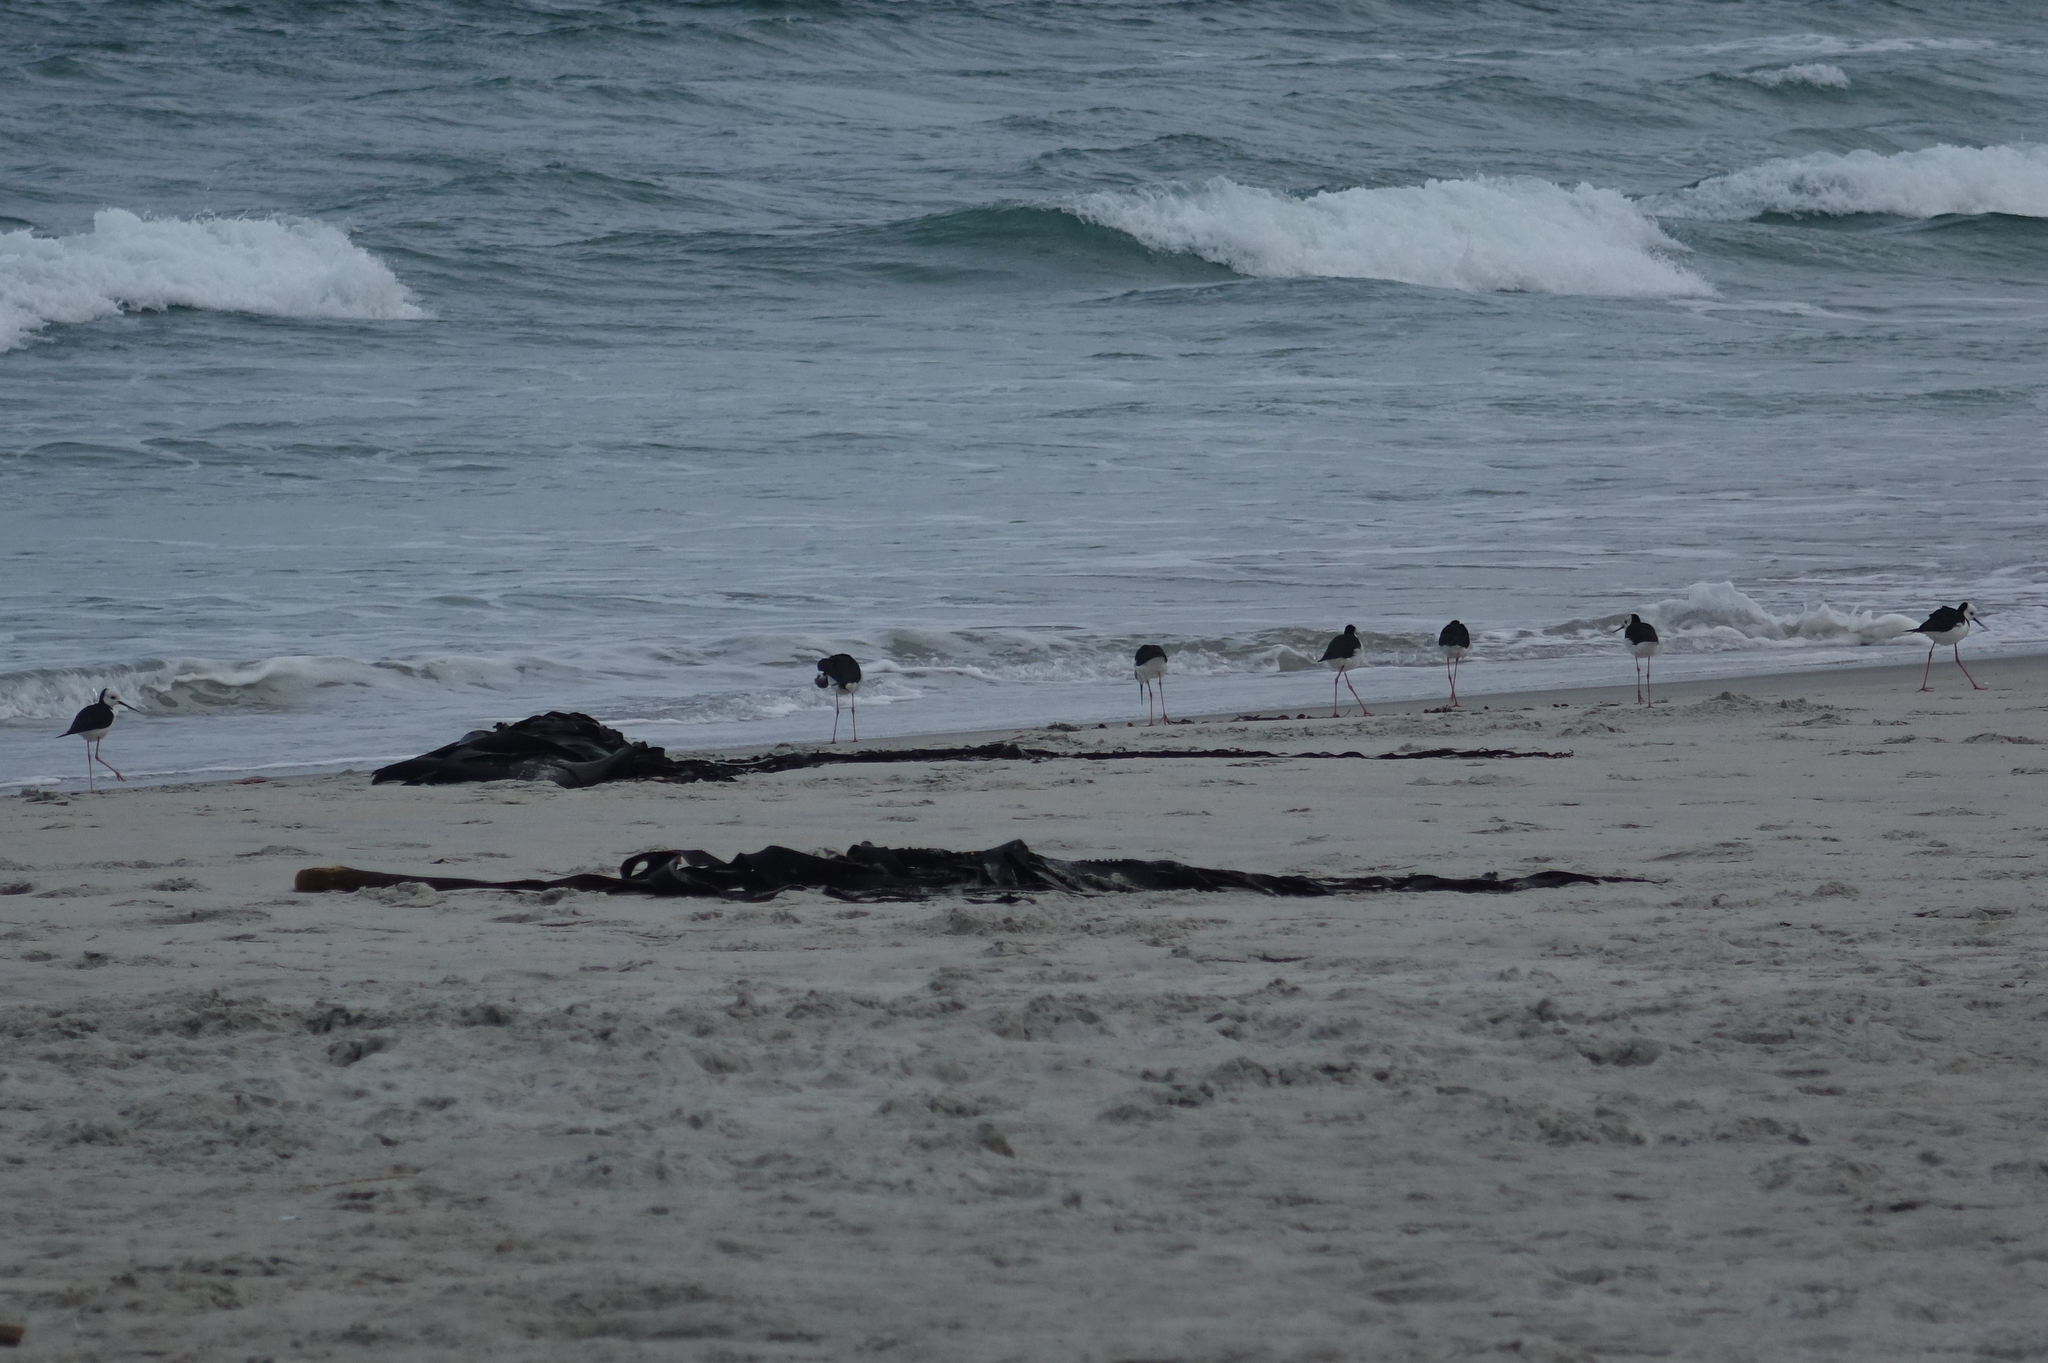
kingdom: Animalia
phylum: Chordata
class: Aves
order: Charadriiformes
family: Recurvirostridae
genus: Himantopus
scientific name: Himantopus leucocephalus
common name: White-headed stilt
